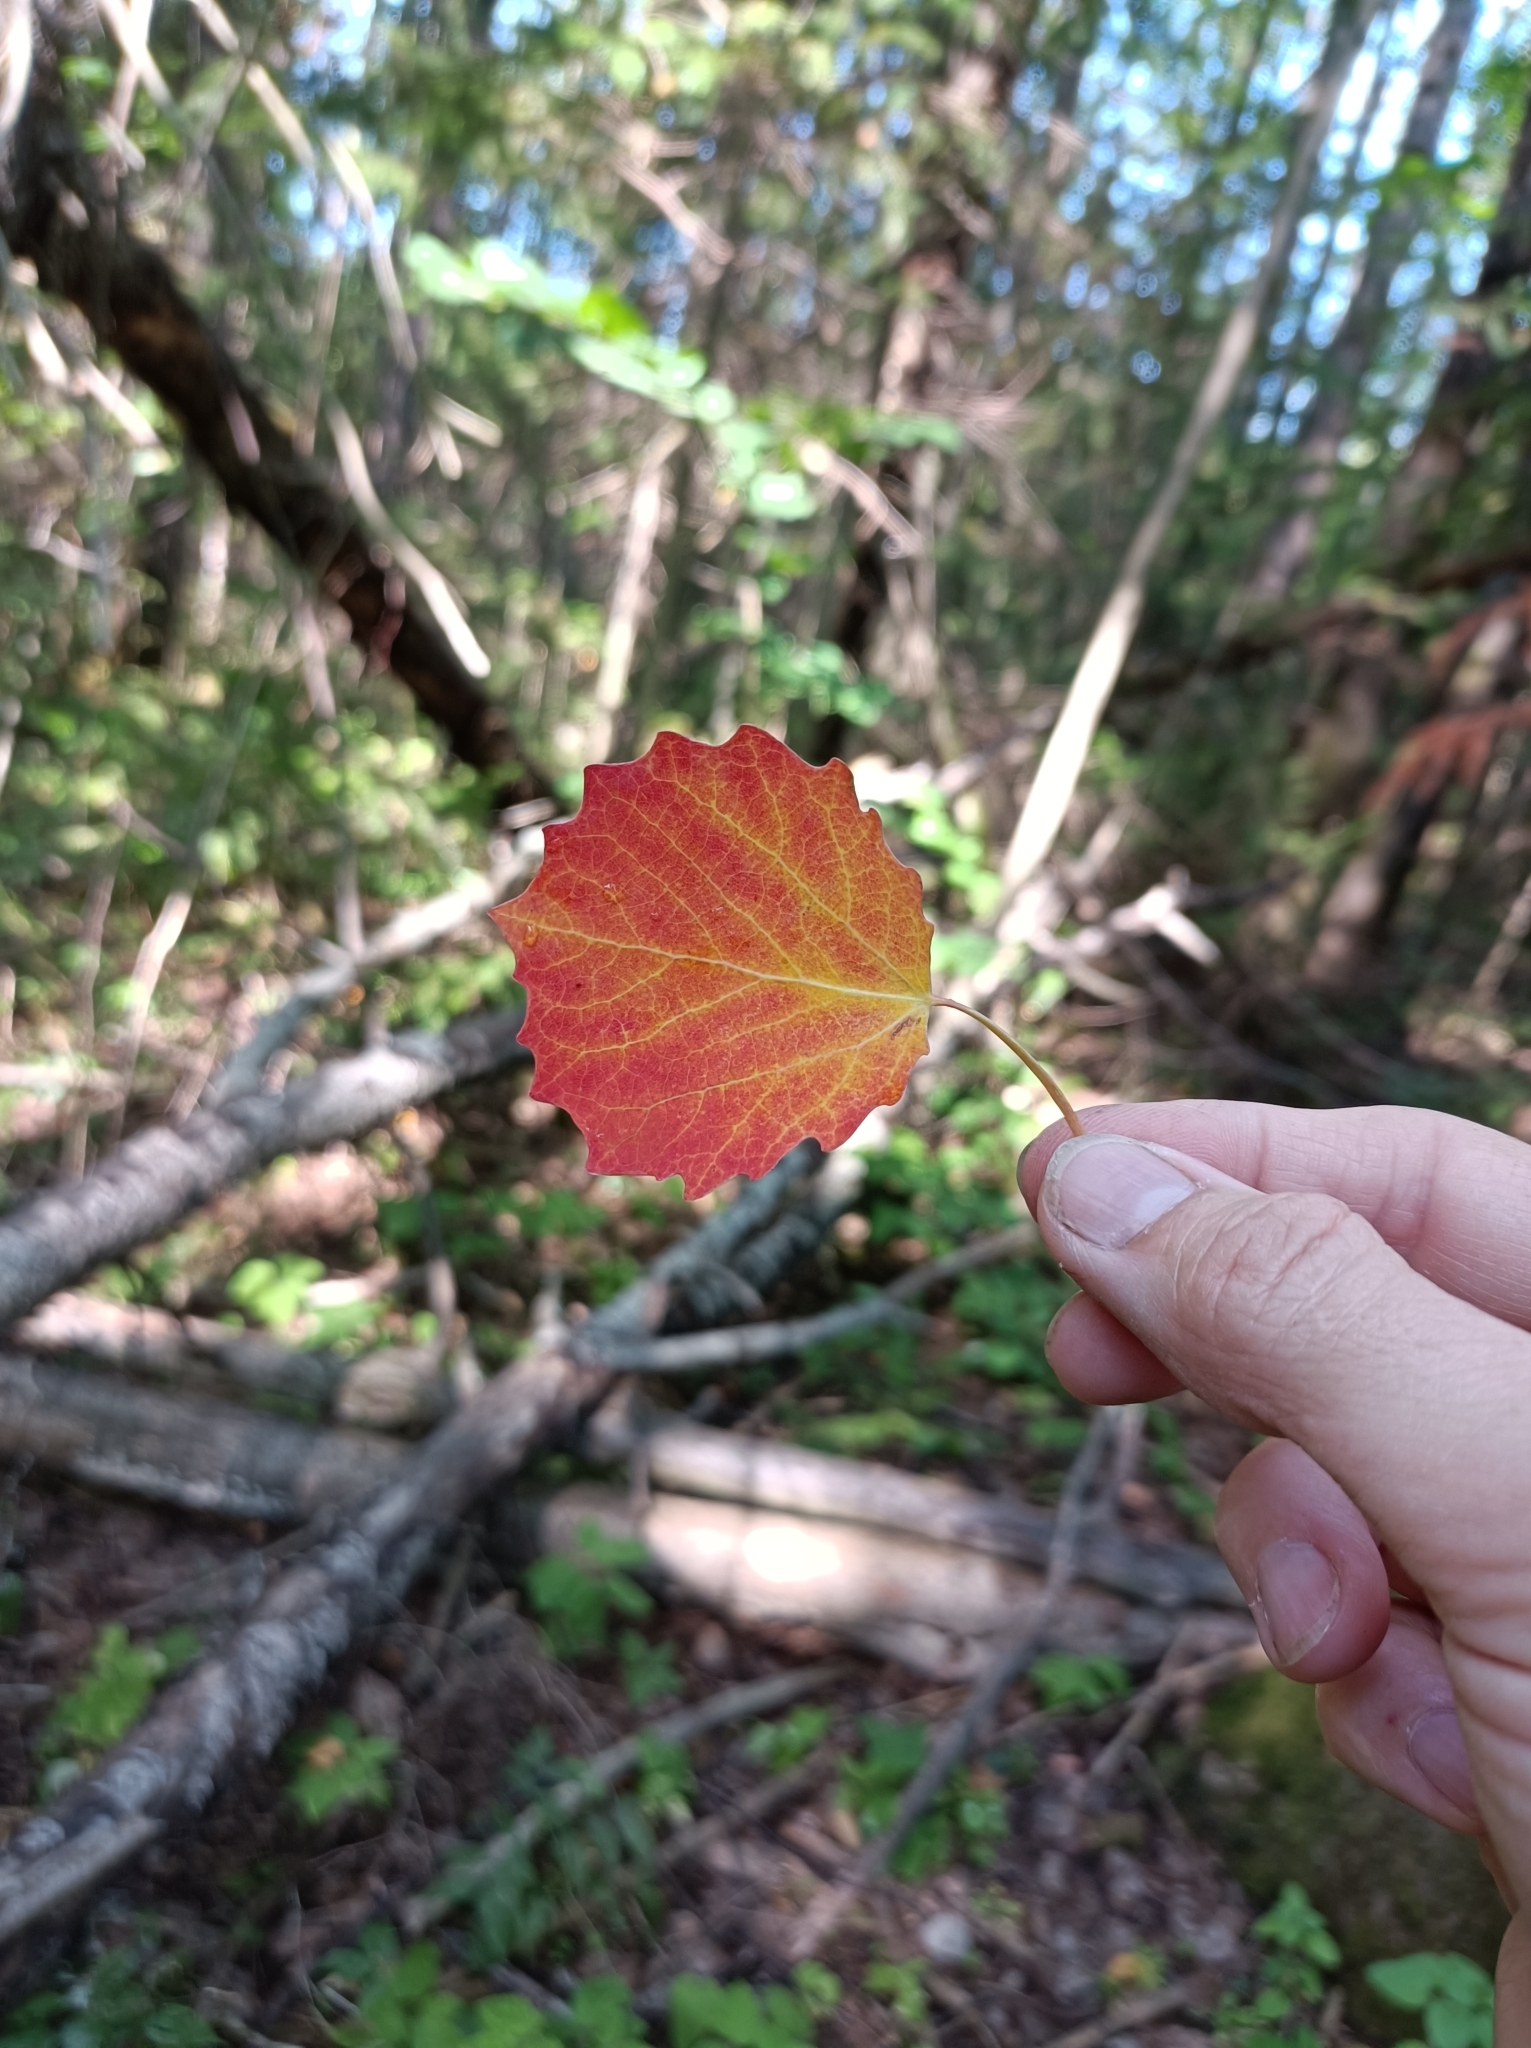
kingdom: Plantae
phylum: Tracheophyta
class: Magnoliopsida
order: Malpighiales
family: Salicaceae
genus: Populus
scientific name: Populus tremula
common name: European aspen
